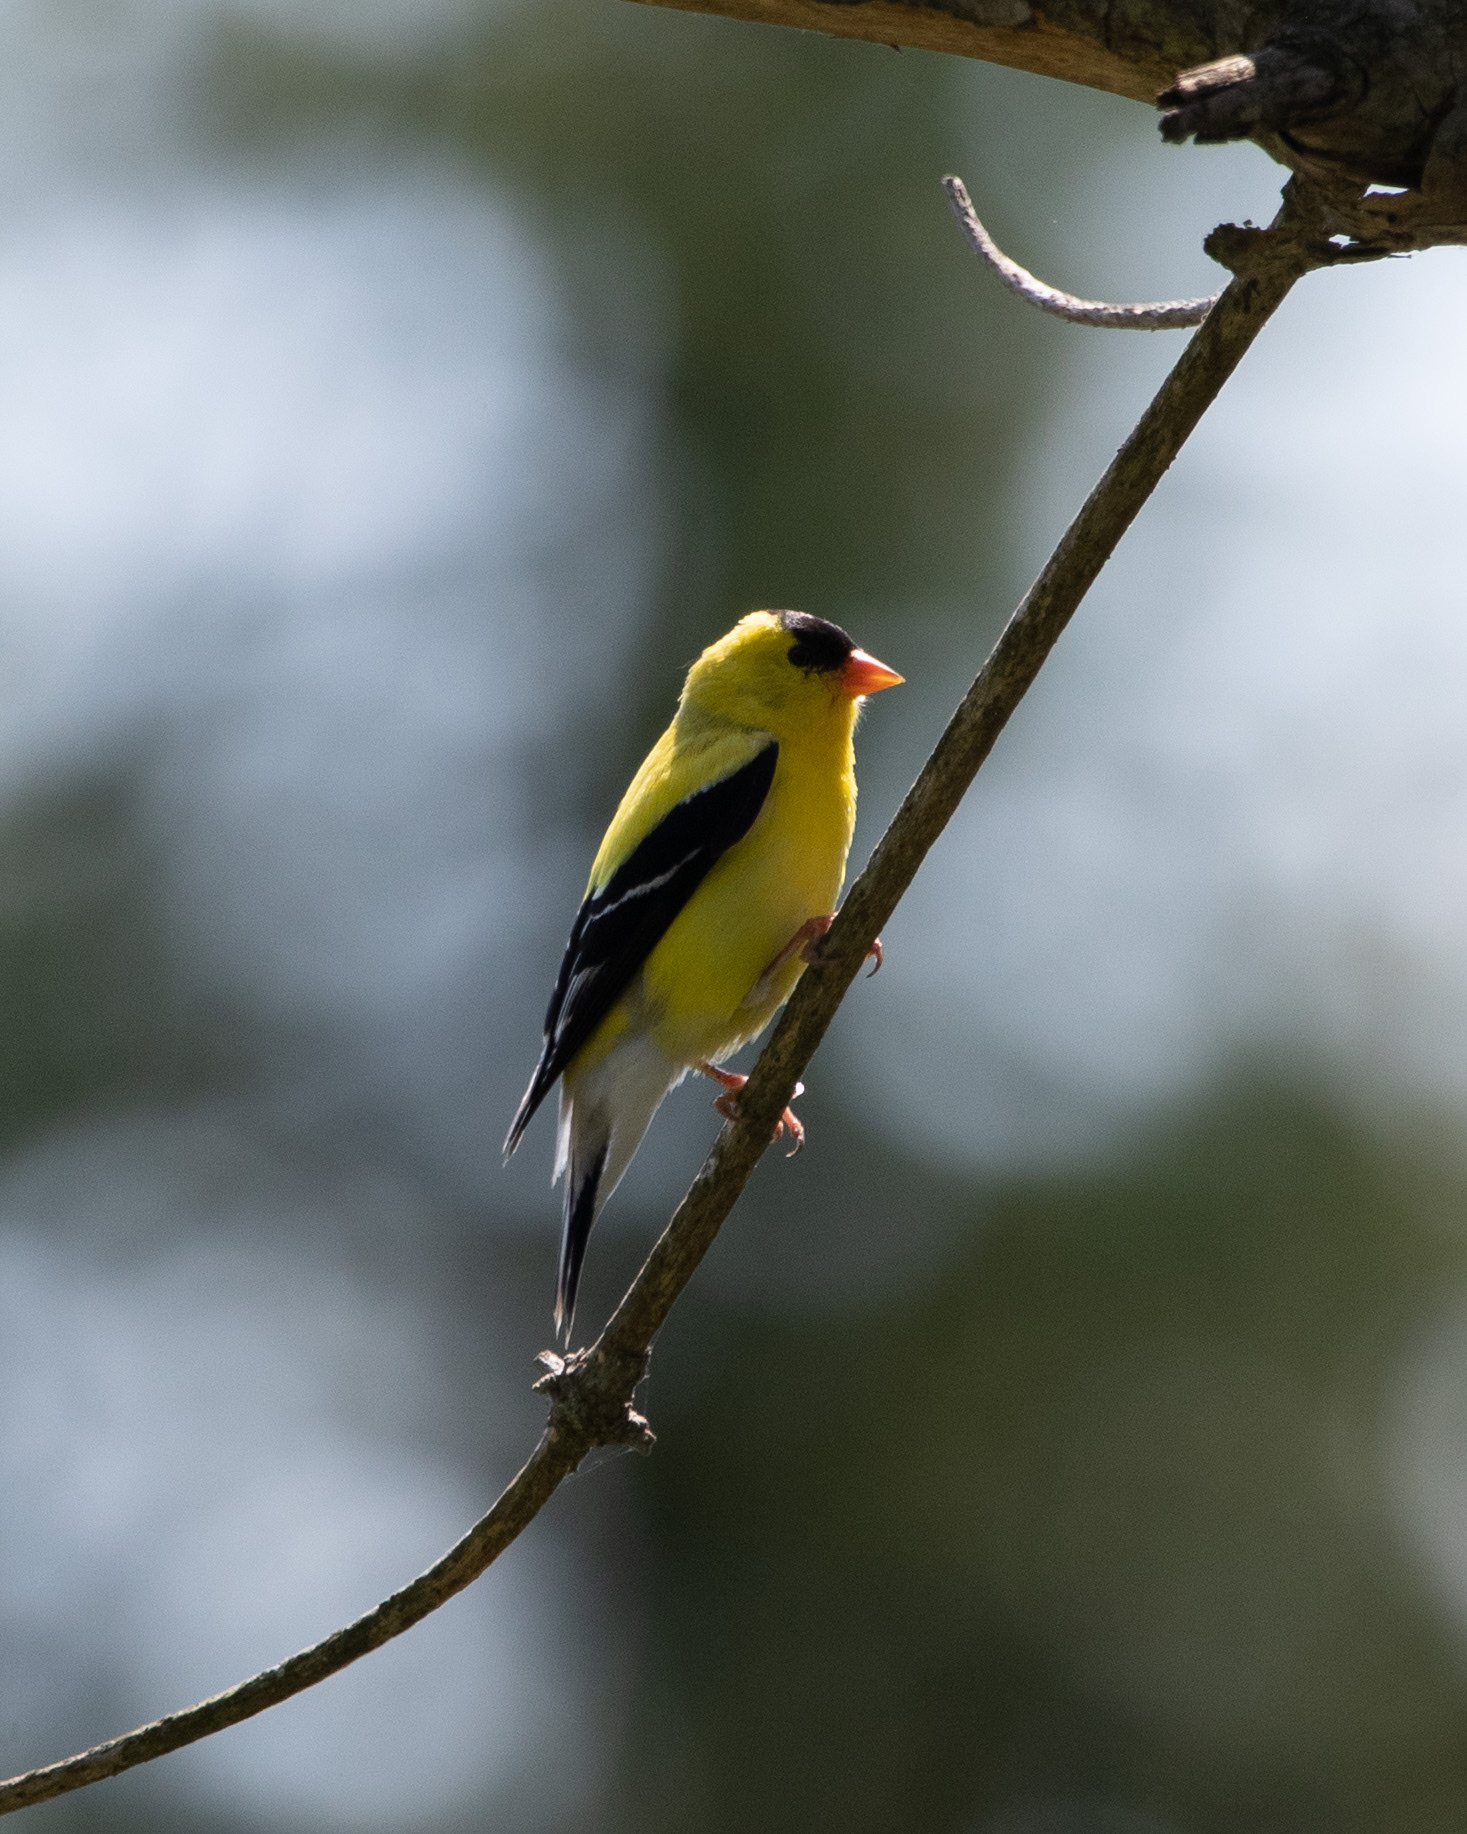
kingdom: Animalia
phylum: Chordata
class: Aves
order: Passeriformes
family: Fringillidae
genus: Spinus
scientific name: Spinus tristis
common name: American goldfinch
